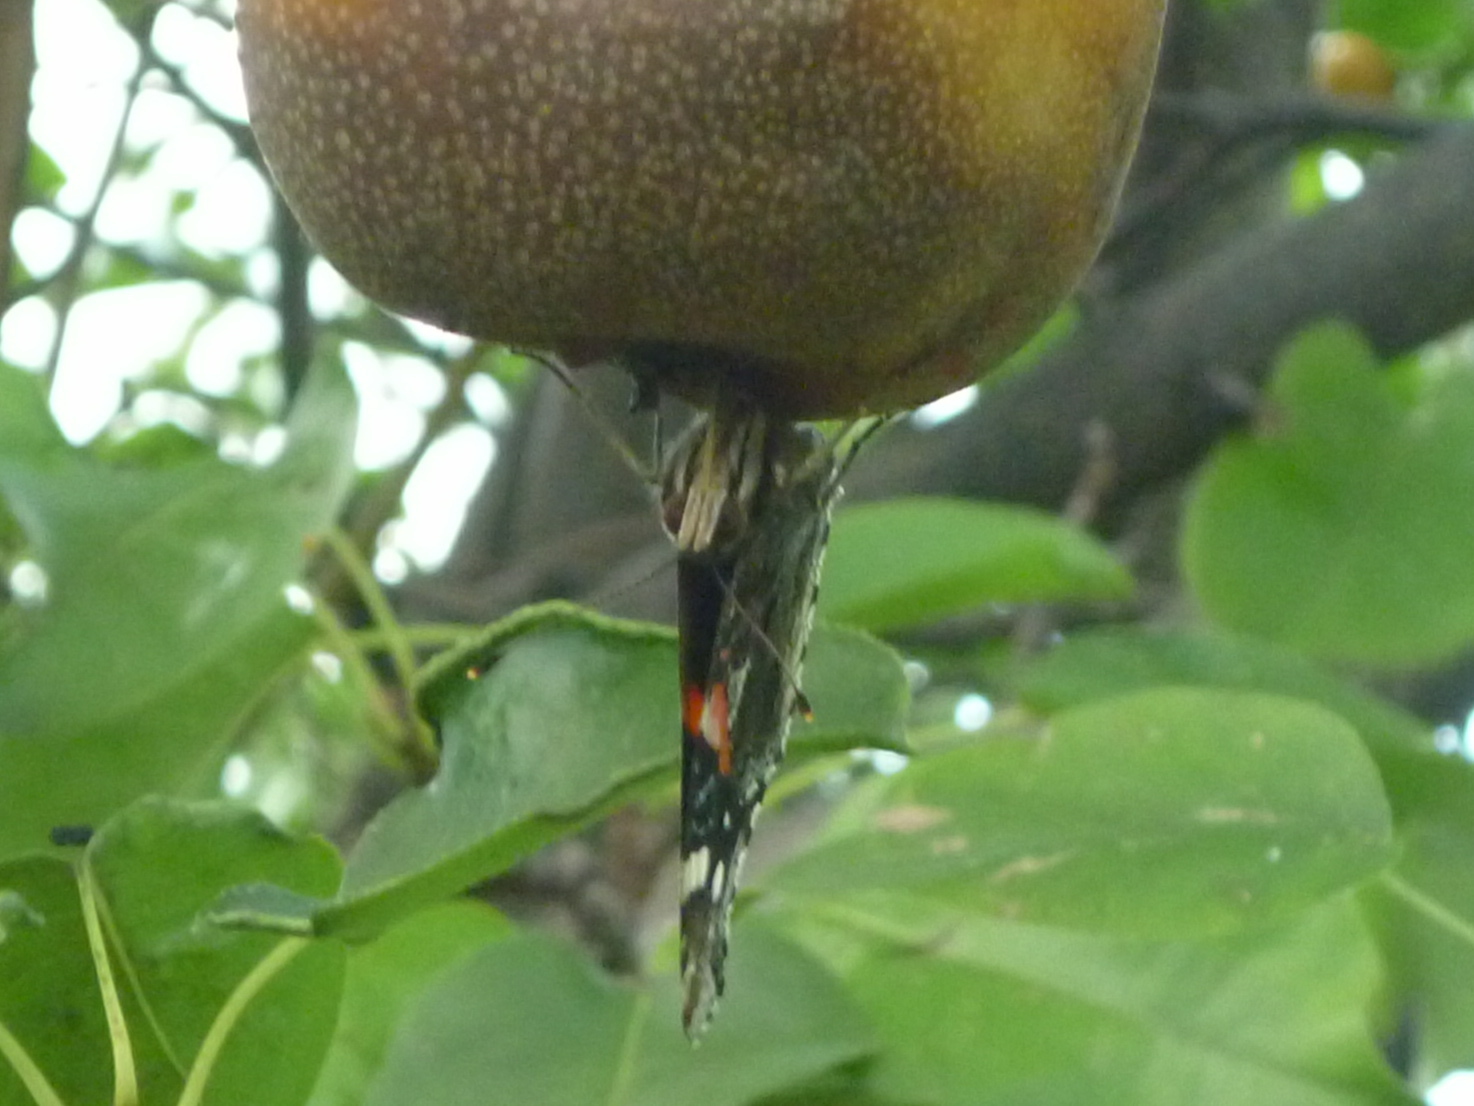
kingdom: Animalia
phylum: Arthropoda
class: Insecta
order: Lepidoptera
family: Nymphalidae
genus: Vanessa
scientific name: Vanessa atalanta
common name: Red admiral
